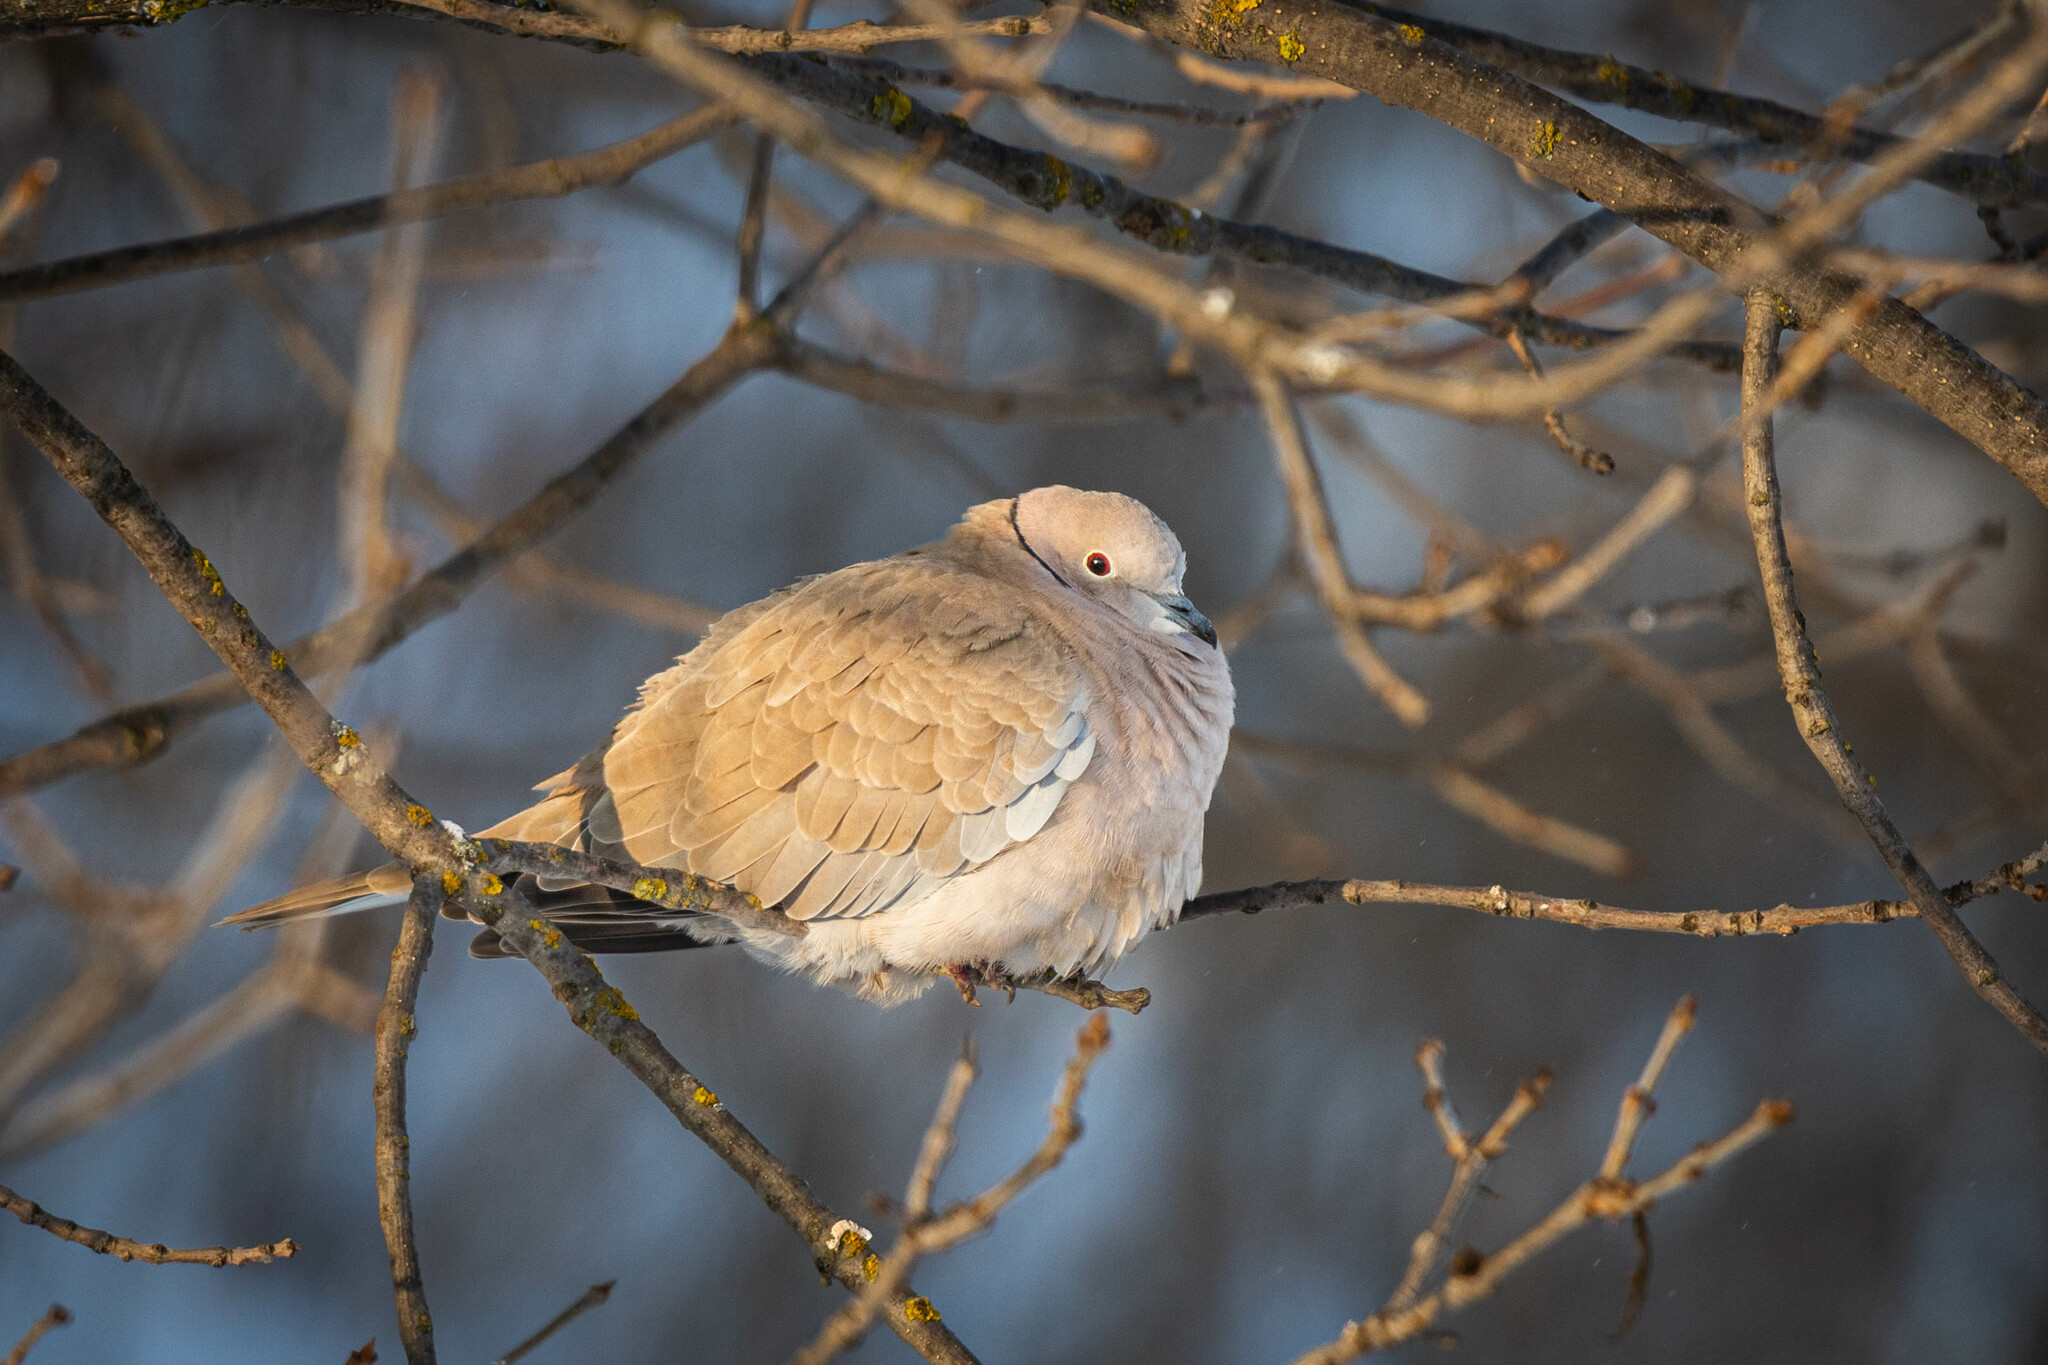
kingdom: Animalia
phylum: Chordata
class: Aves
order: Columbiformes
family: Columbidae
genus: Streptopelia
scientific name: Streptopelia decaocto
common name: Eurasian collared dove
